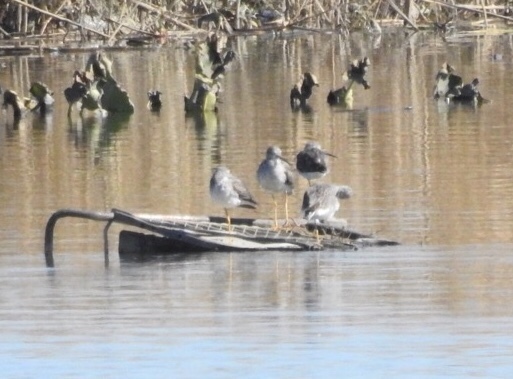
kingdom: Animalia
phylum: Chordata
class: Aves
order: Charadriiformes
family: Scolopacidae
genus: Tringa
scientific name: Tringa melanoleuca
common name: Greater yellowlegs
